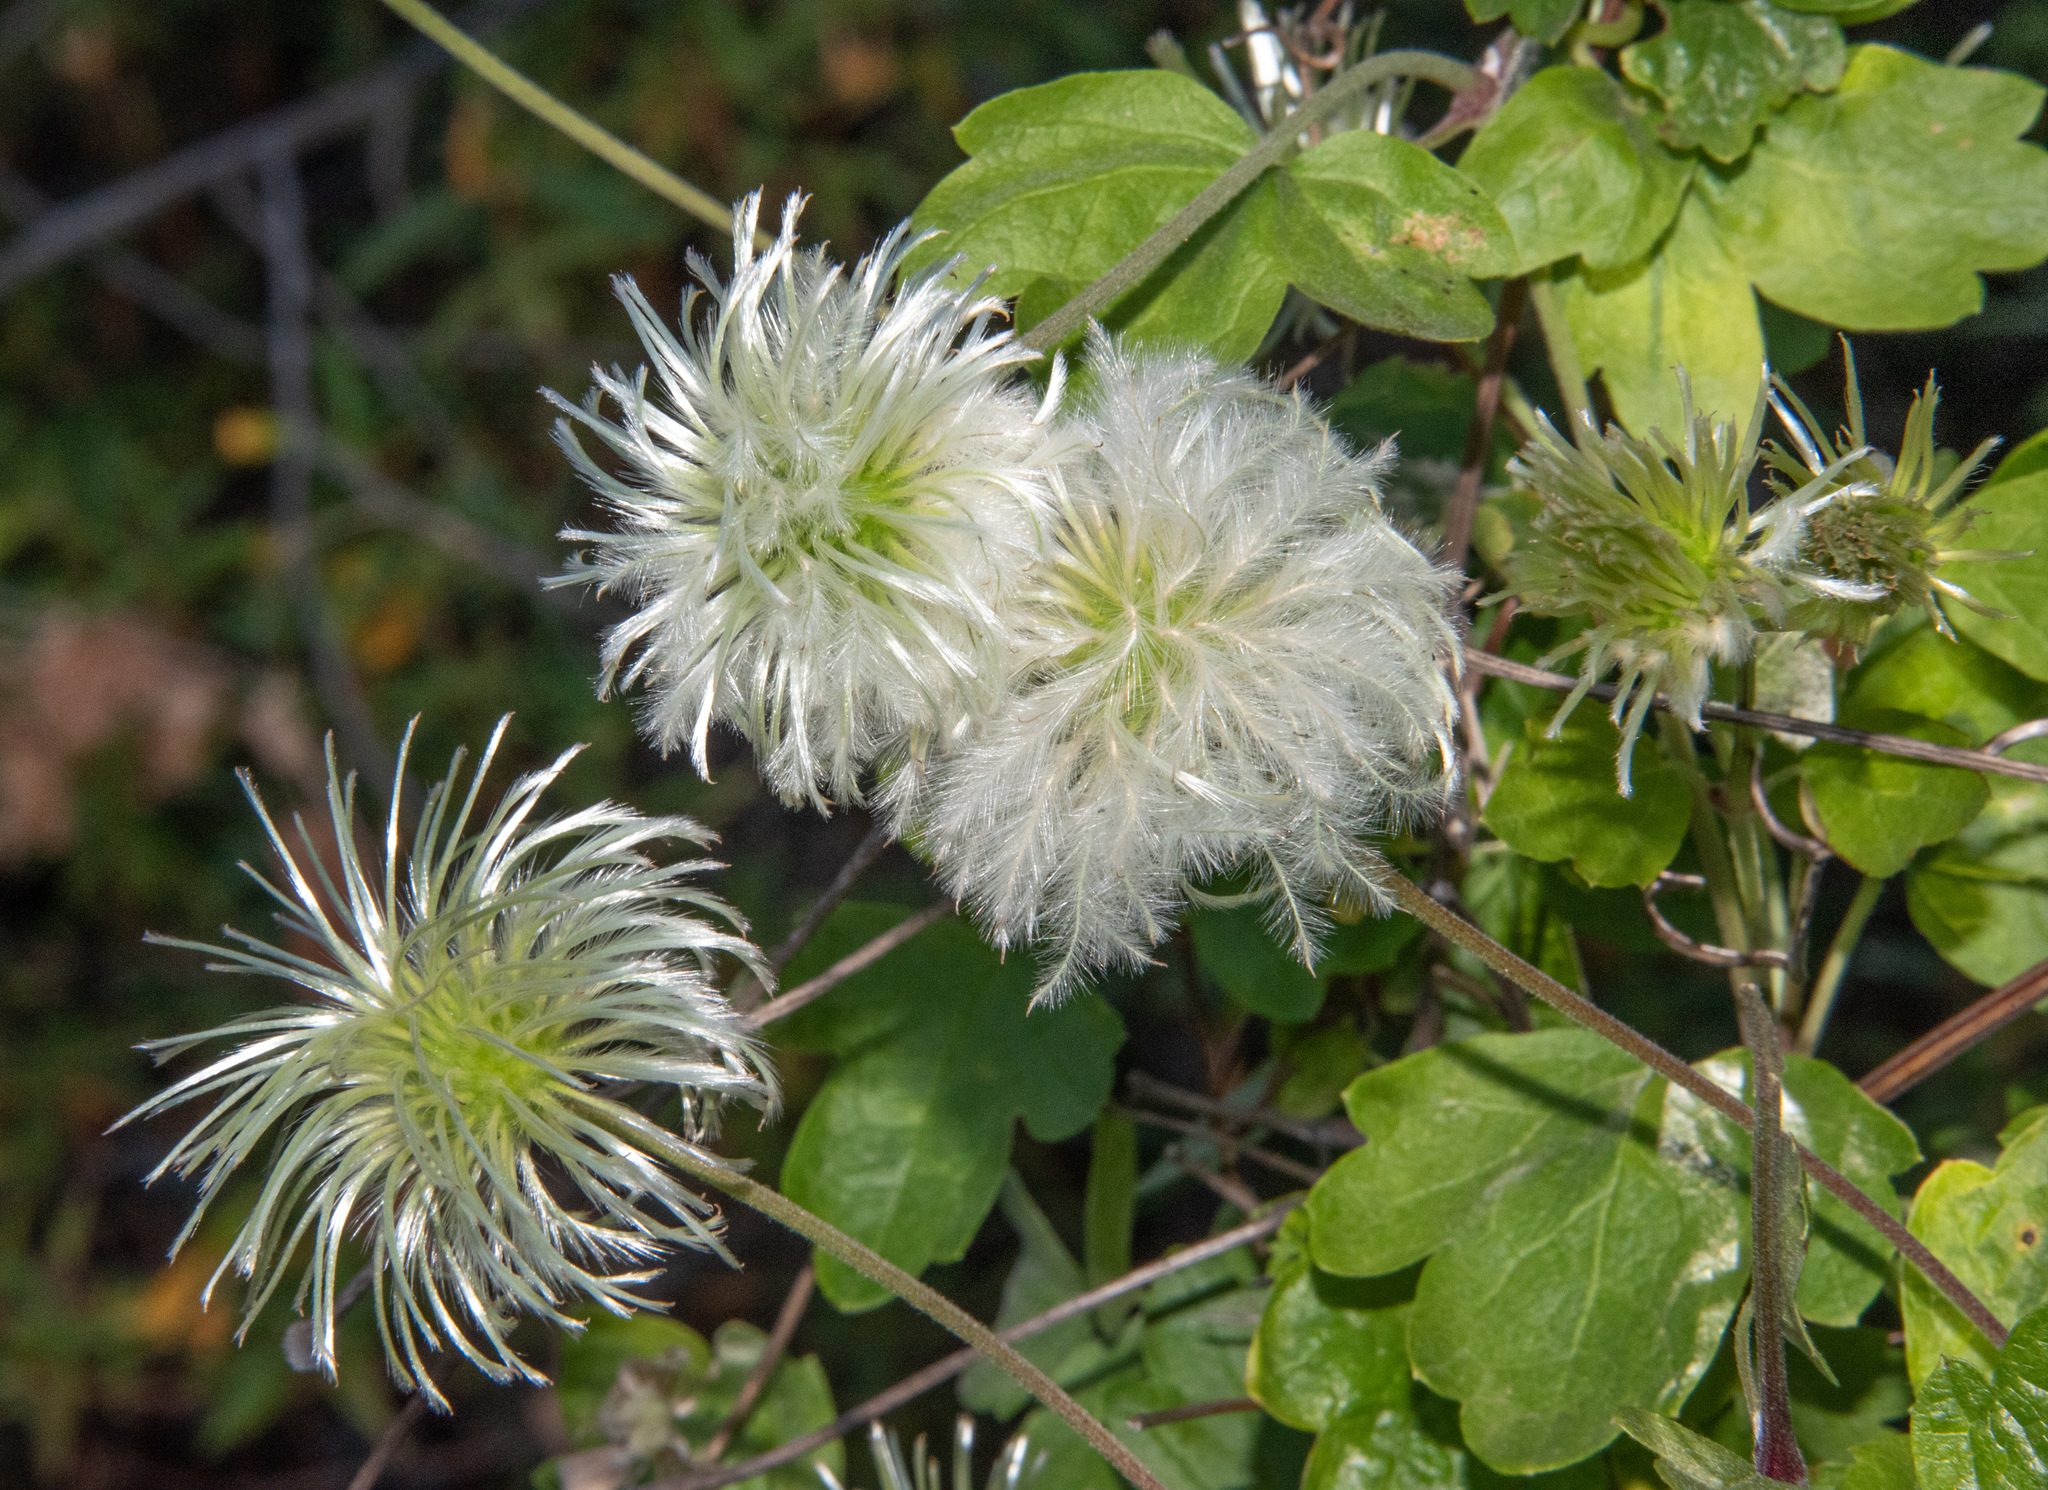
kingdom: Plantae
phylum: Tracheophyta
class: Magnoliopsida
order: Ranunculales
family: Ranunculaceae
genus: Clematis
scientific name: Clematis lasiantha
